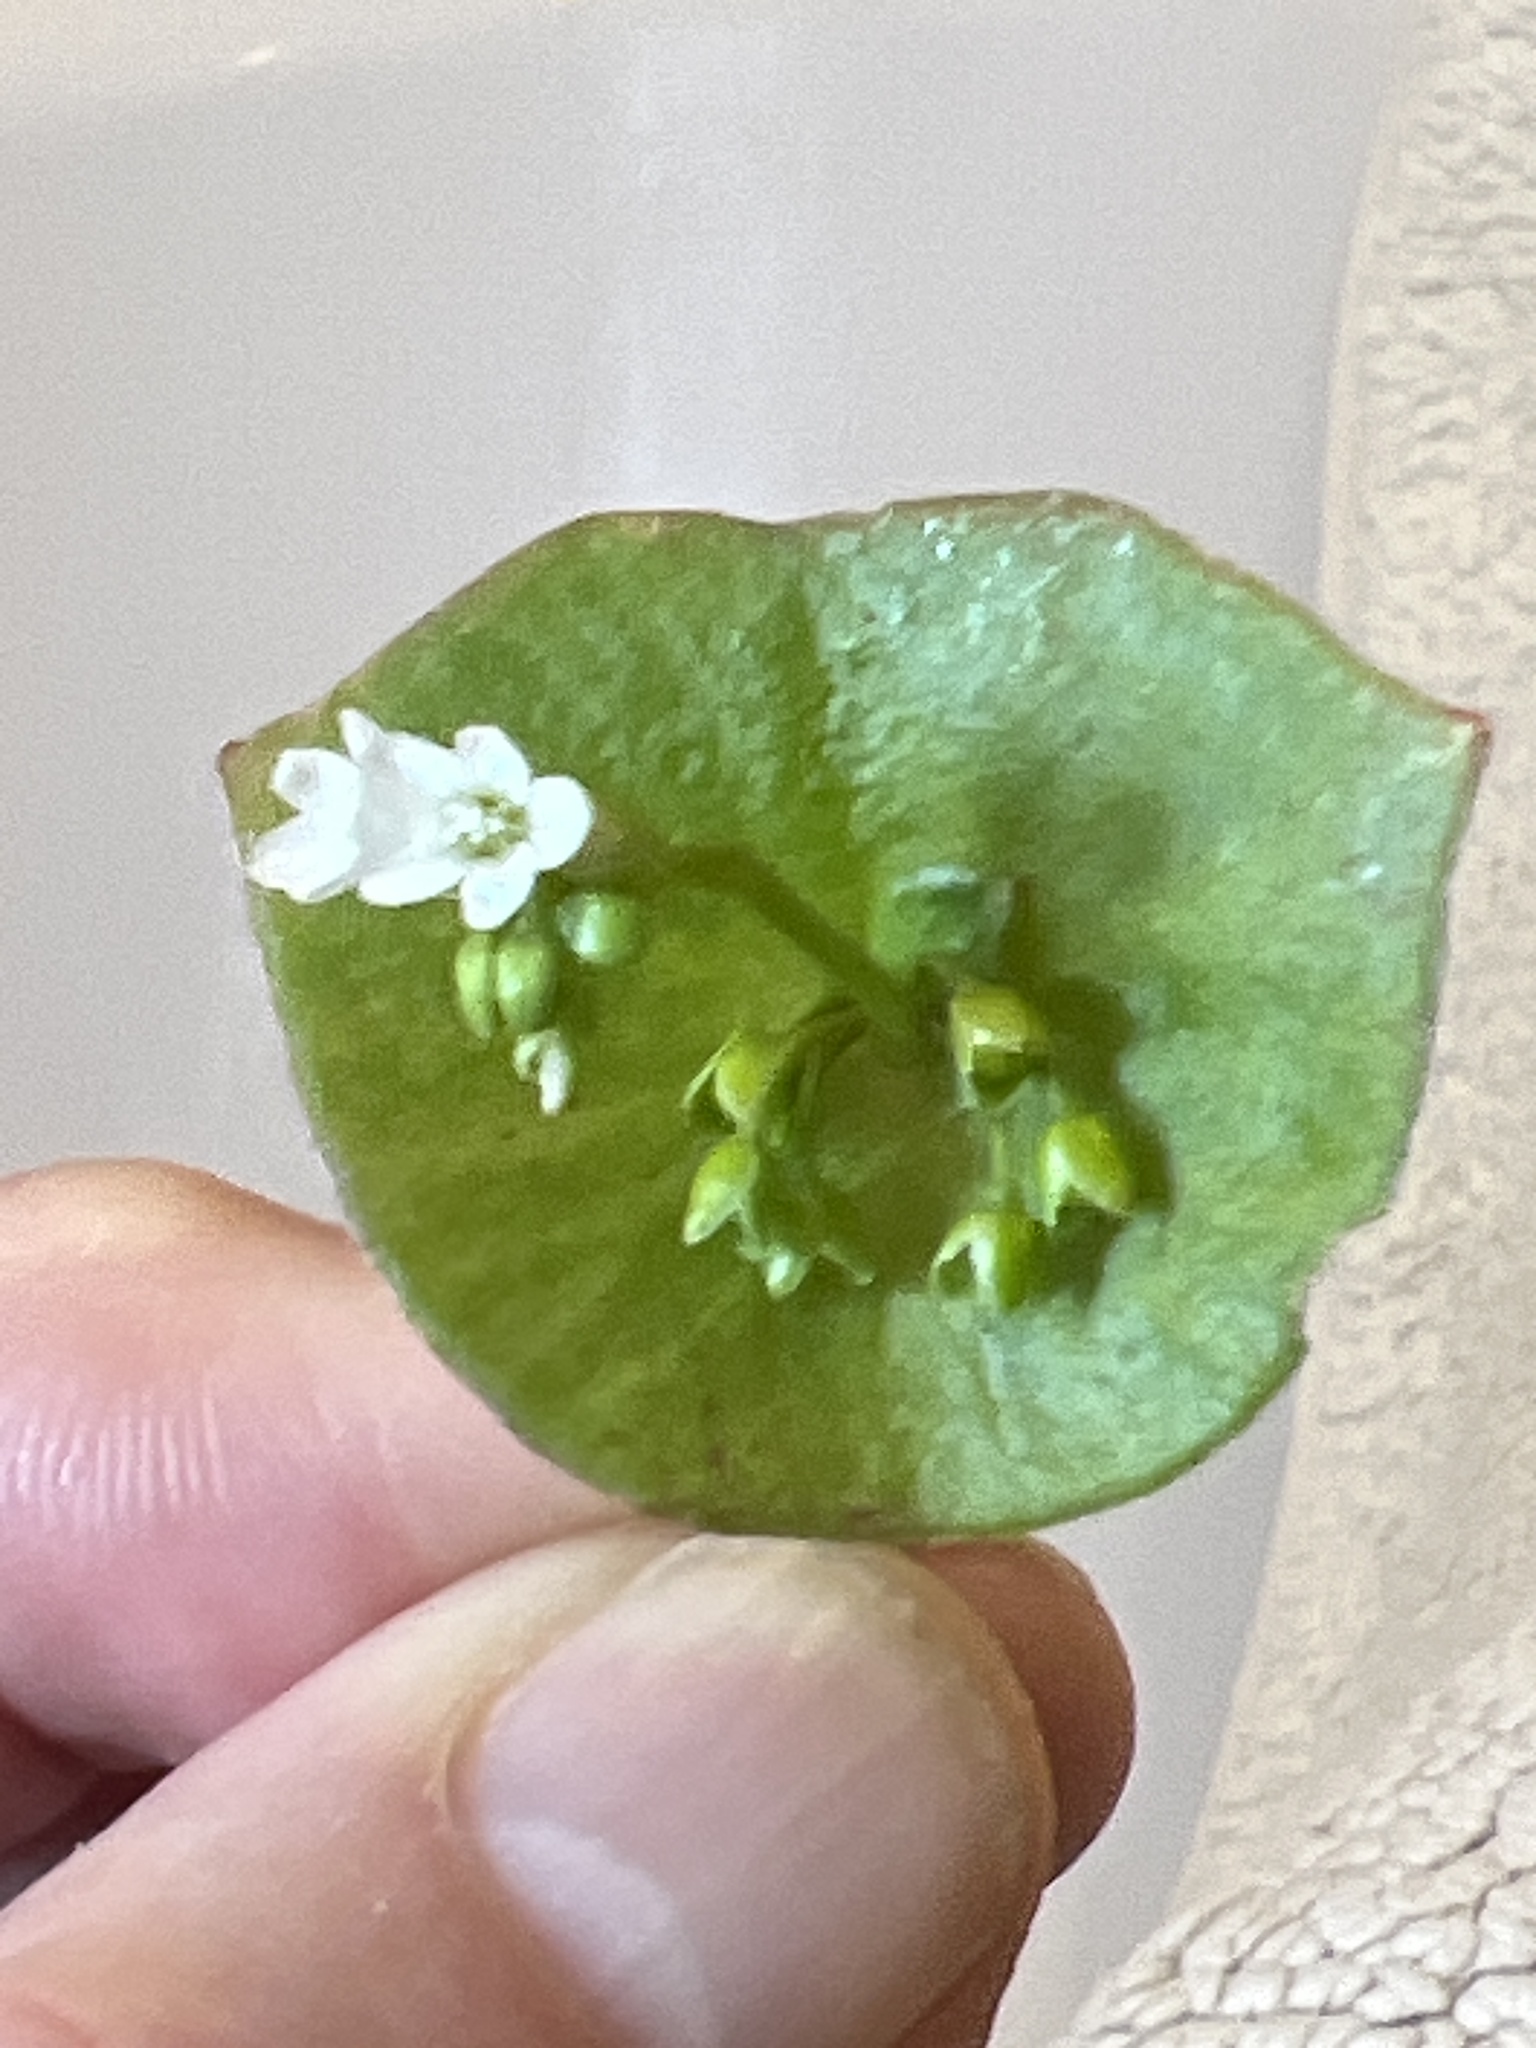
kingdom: Plantae
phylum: Tracheophyta
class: Magnoliopsida
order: Caryophyllales
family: Montiaceae
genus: Claytonia
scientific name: Claytonia perfoliata
